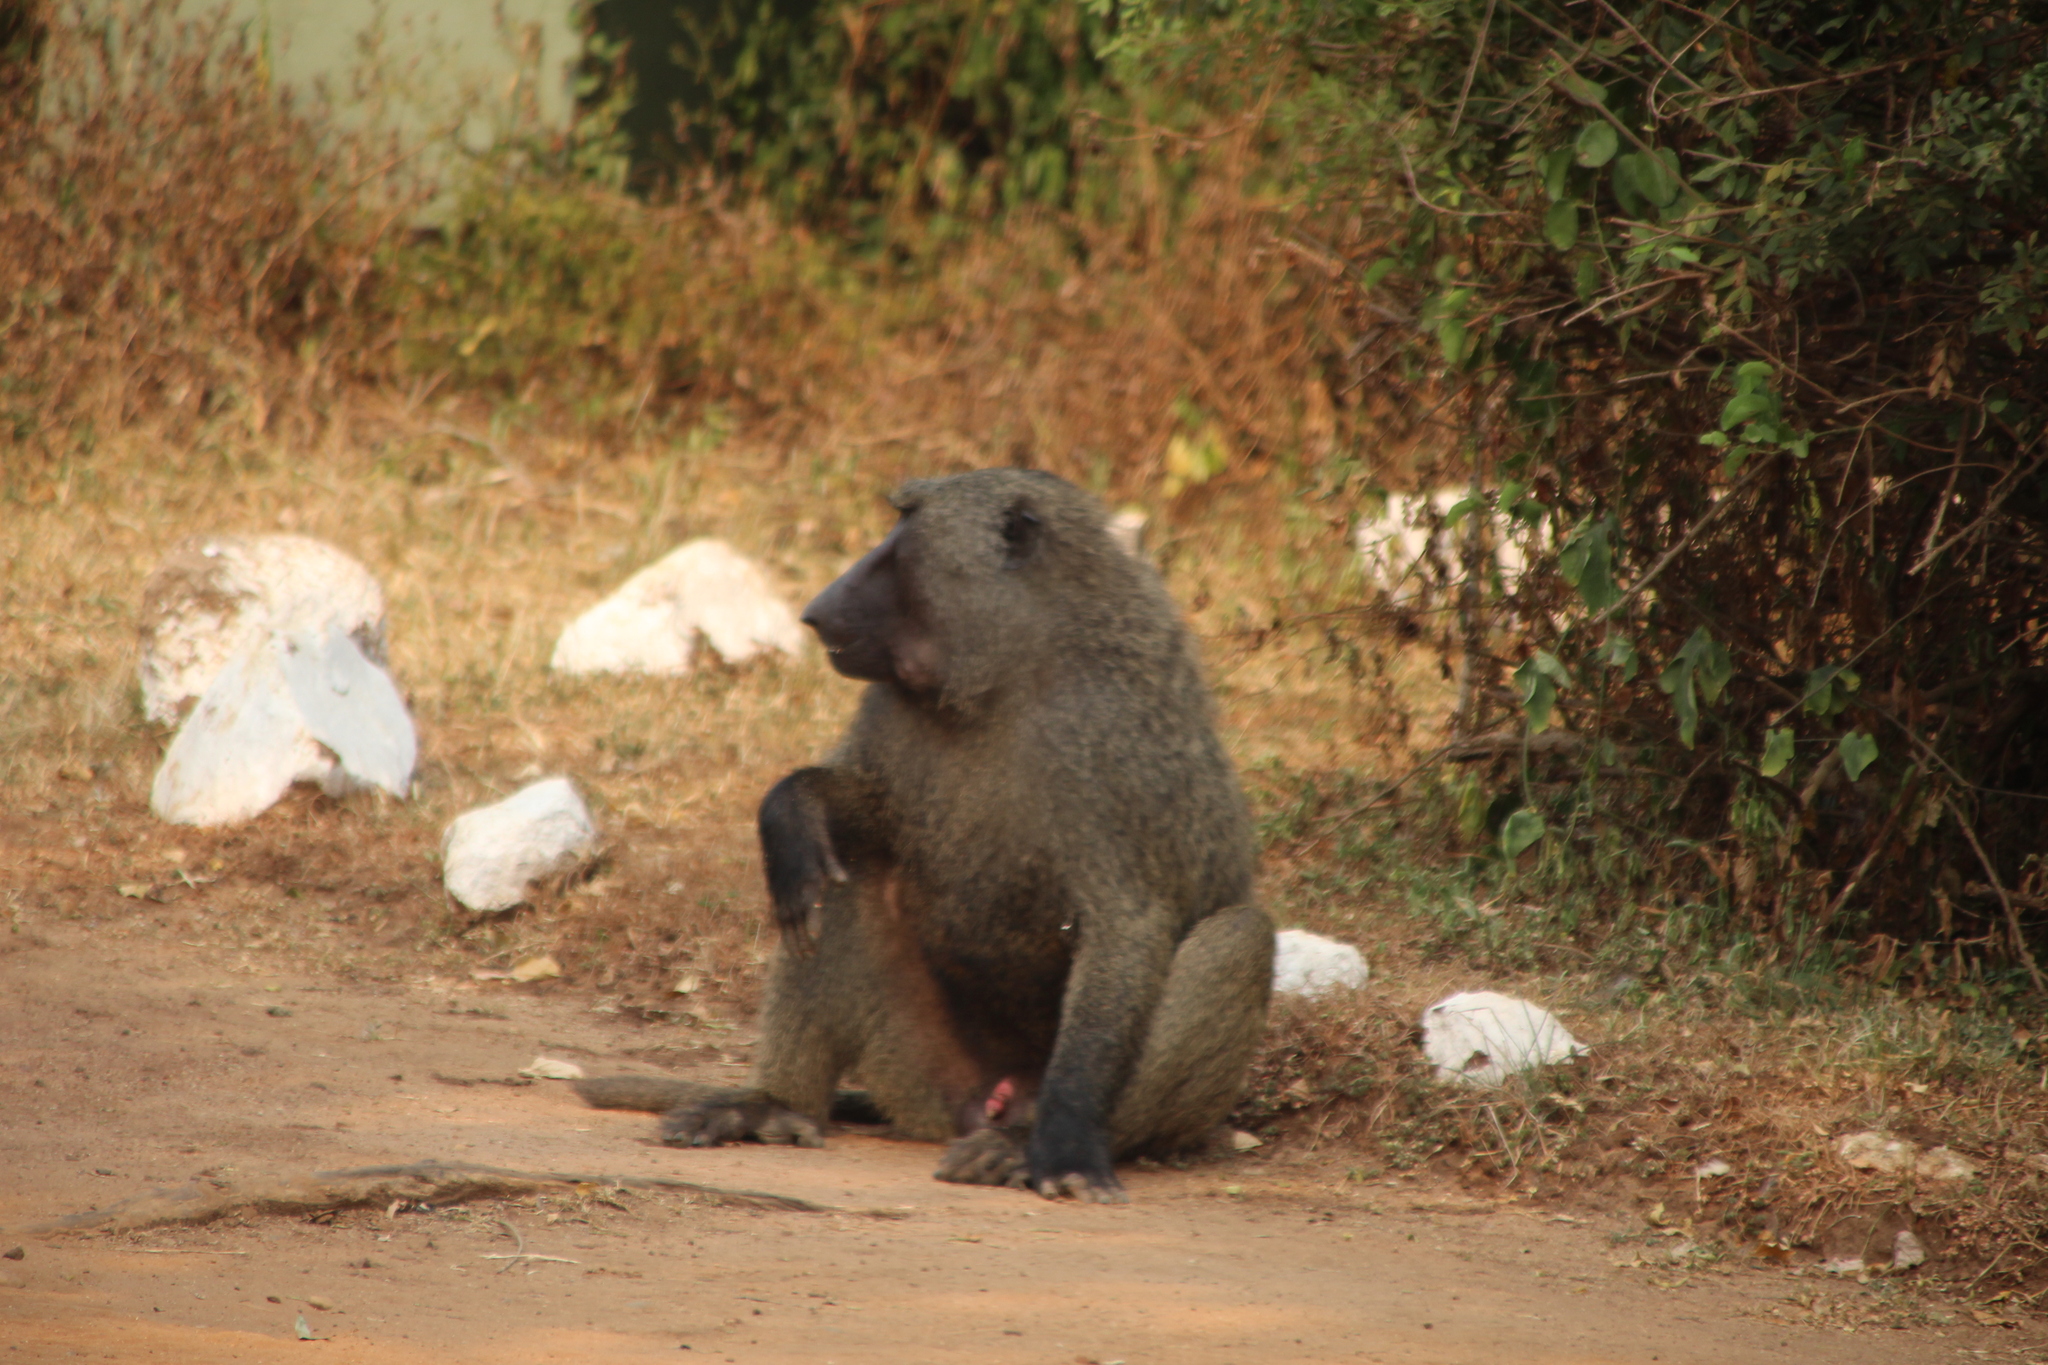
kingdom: Animalia
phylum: Chordata
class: Mammalia
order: Primates
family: Cercopithecidae
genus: Papio
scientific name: Papio anubis
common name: Olive baboon
